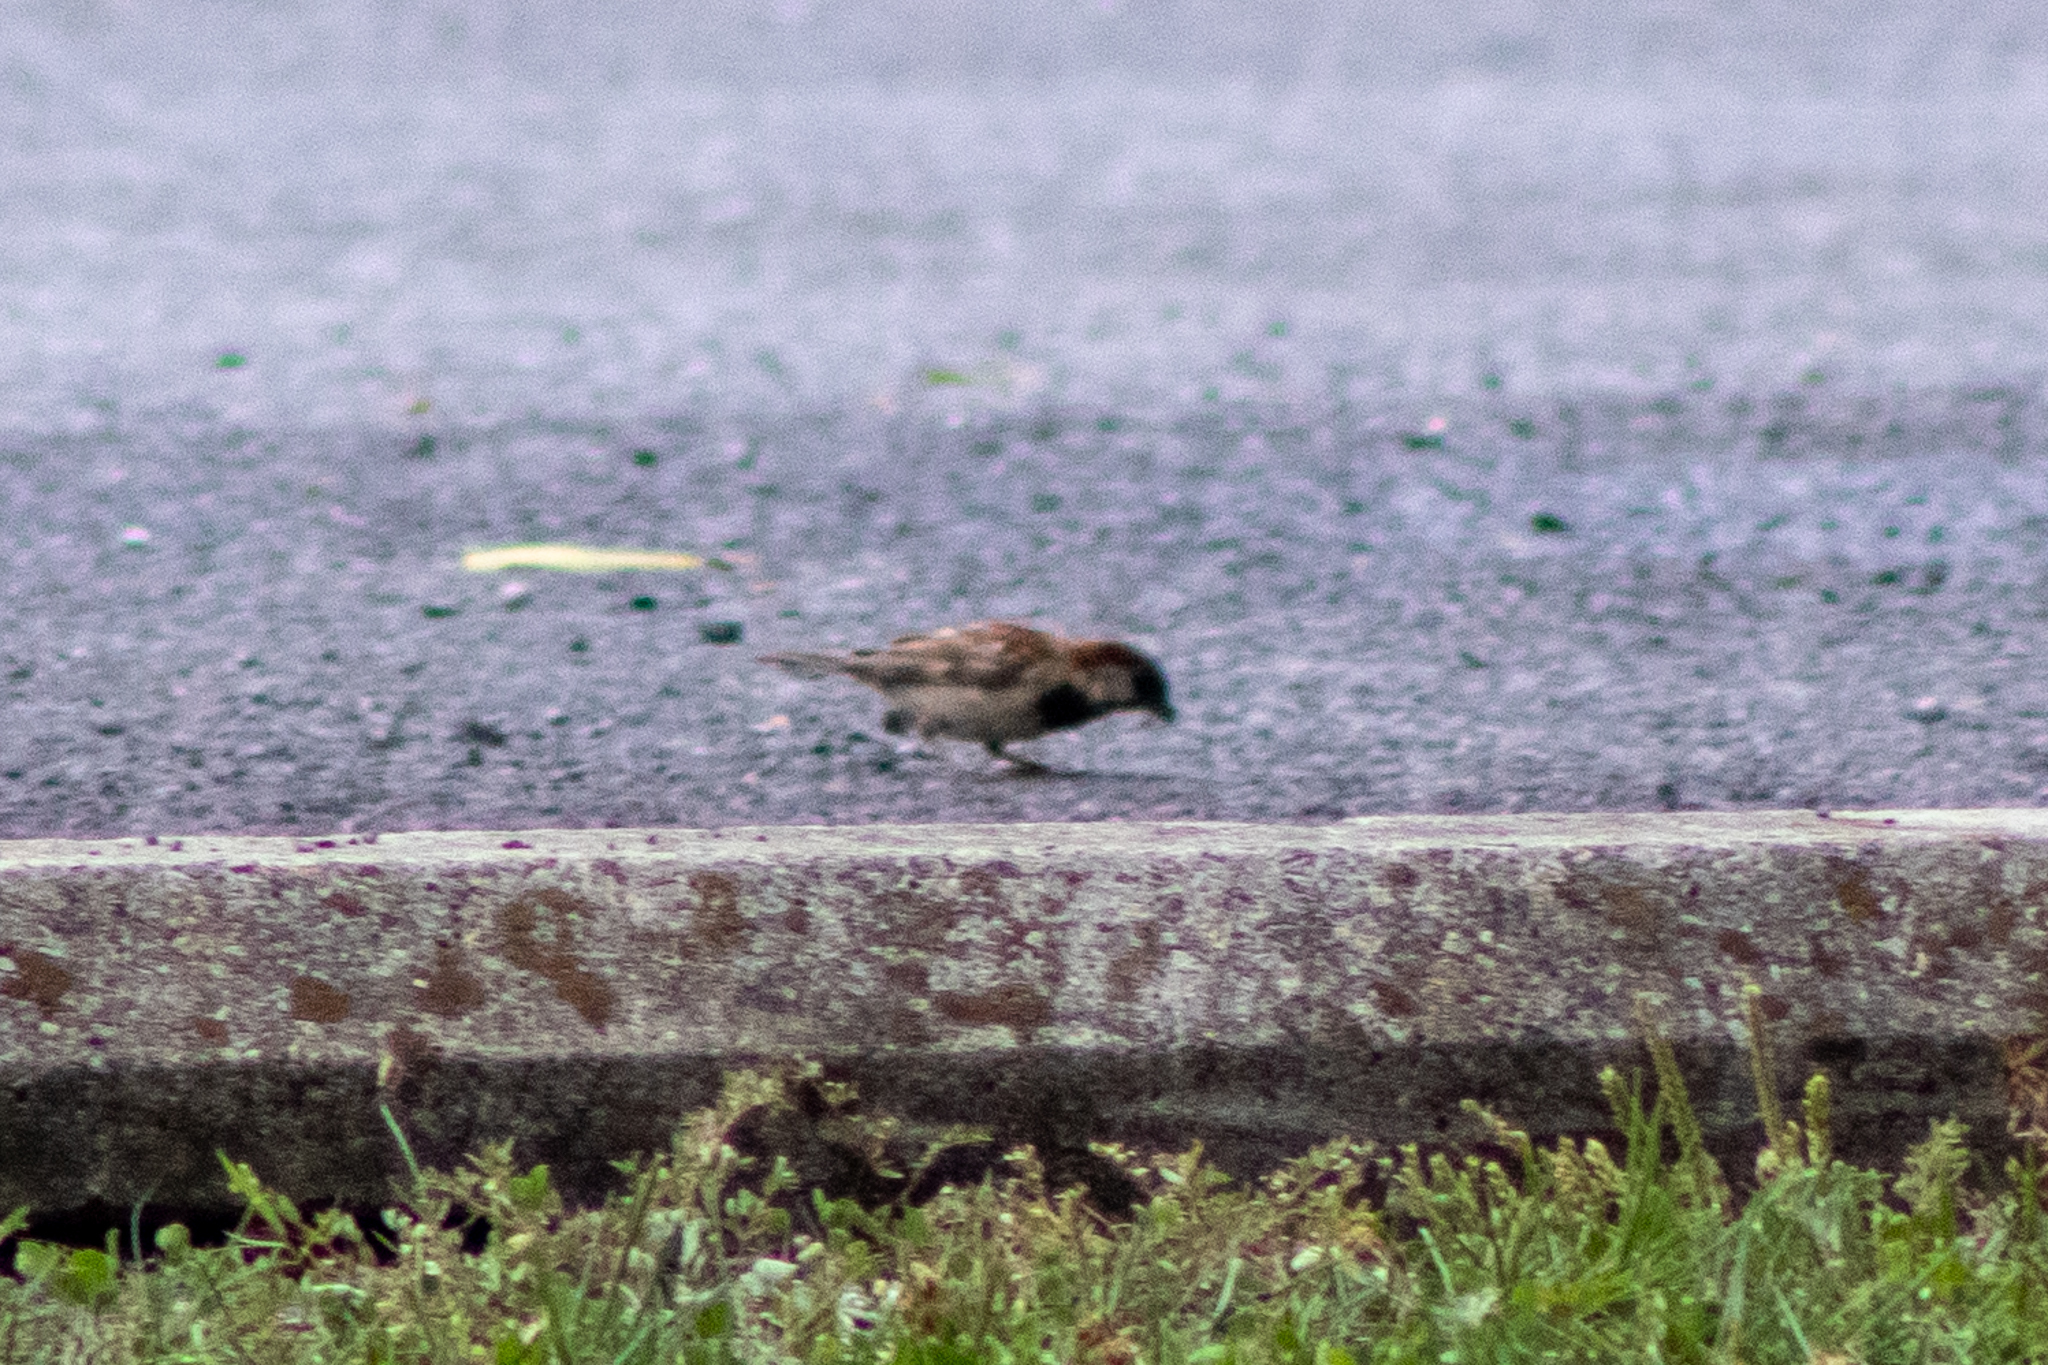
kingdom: Animalia
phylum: Chordata
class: Aves
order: Passeriformes
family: Passeridae
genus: Passer
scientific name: Passer domesticus
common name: House sparrow
